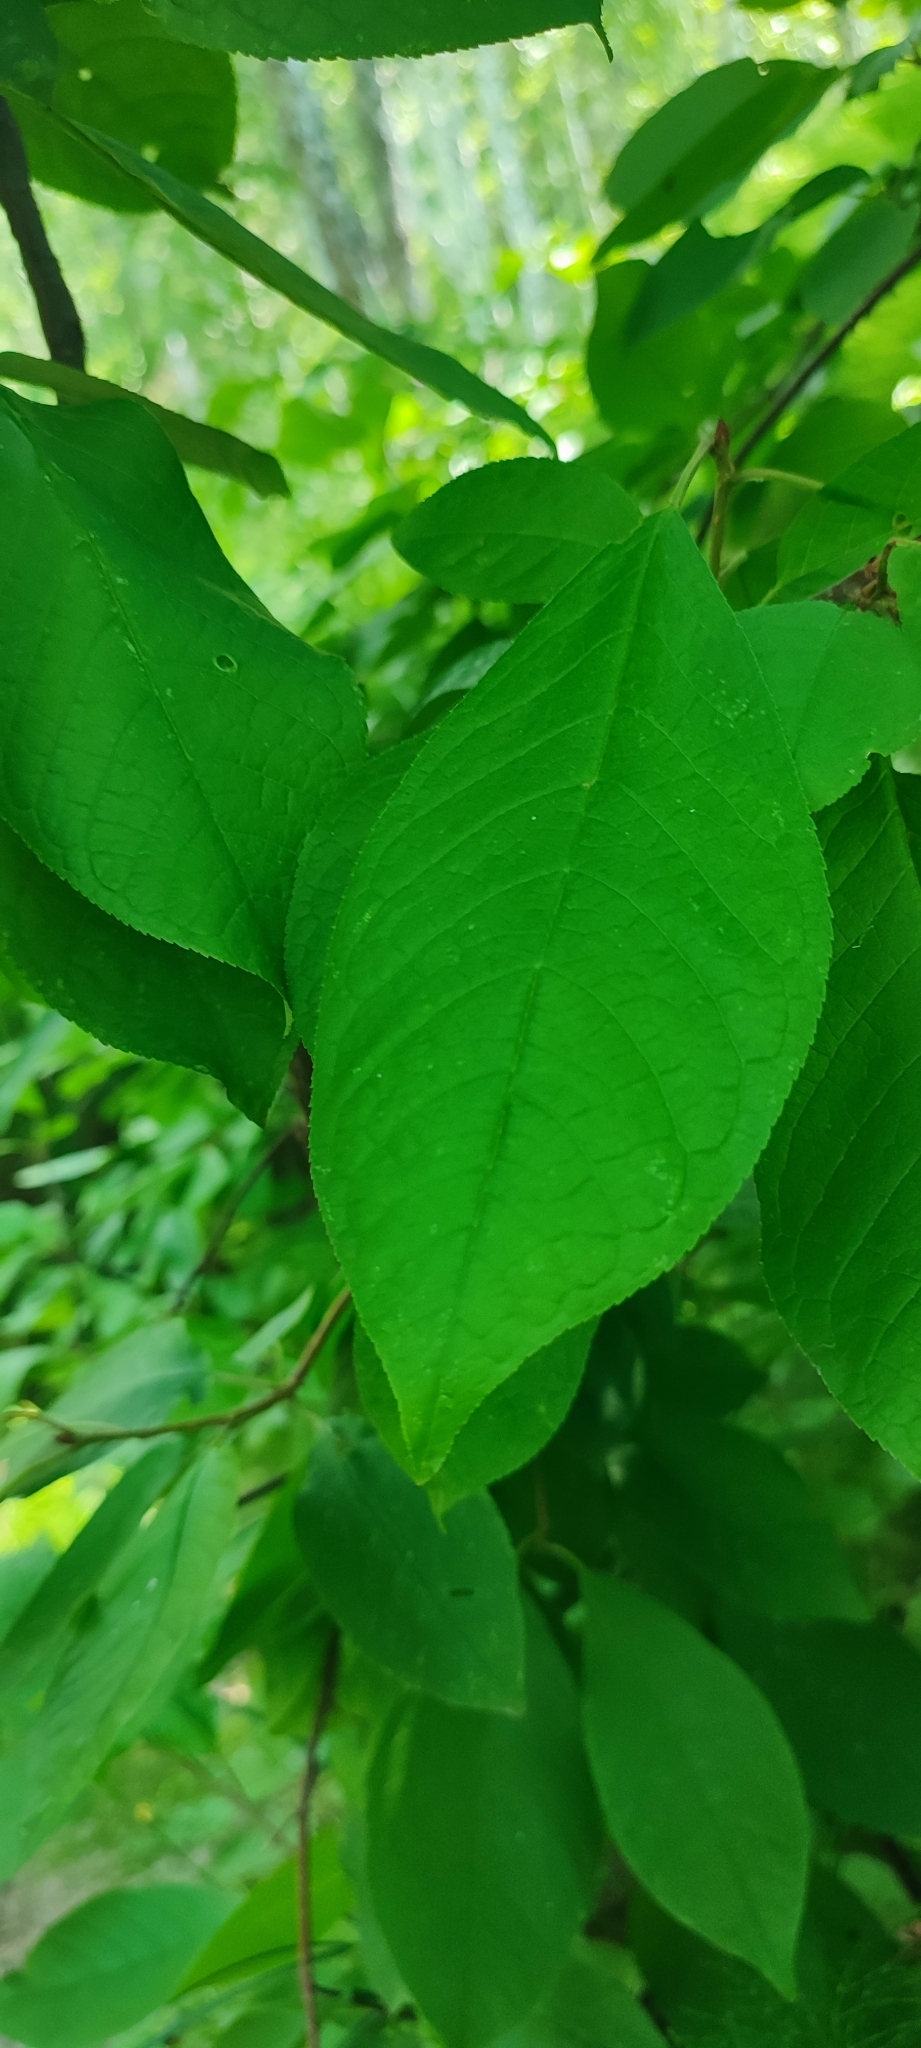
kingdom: Plantae
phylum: Tracheophyta
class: Magnoliopsida
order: Rosales
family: Rosaceae
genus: Prunus
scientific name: Prunus padus
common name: Bird cherry
